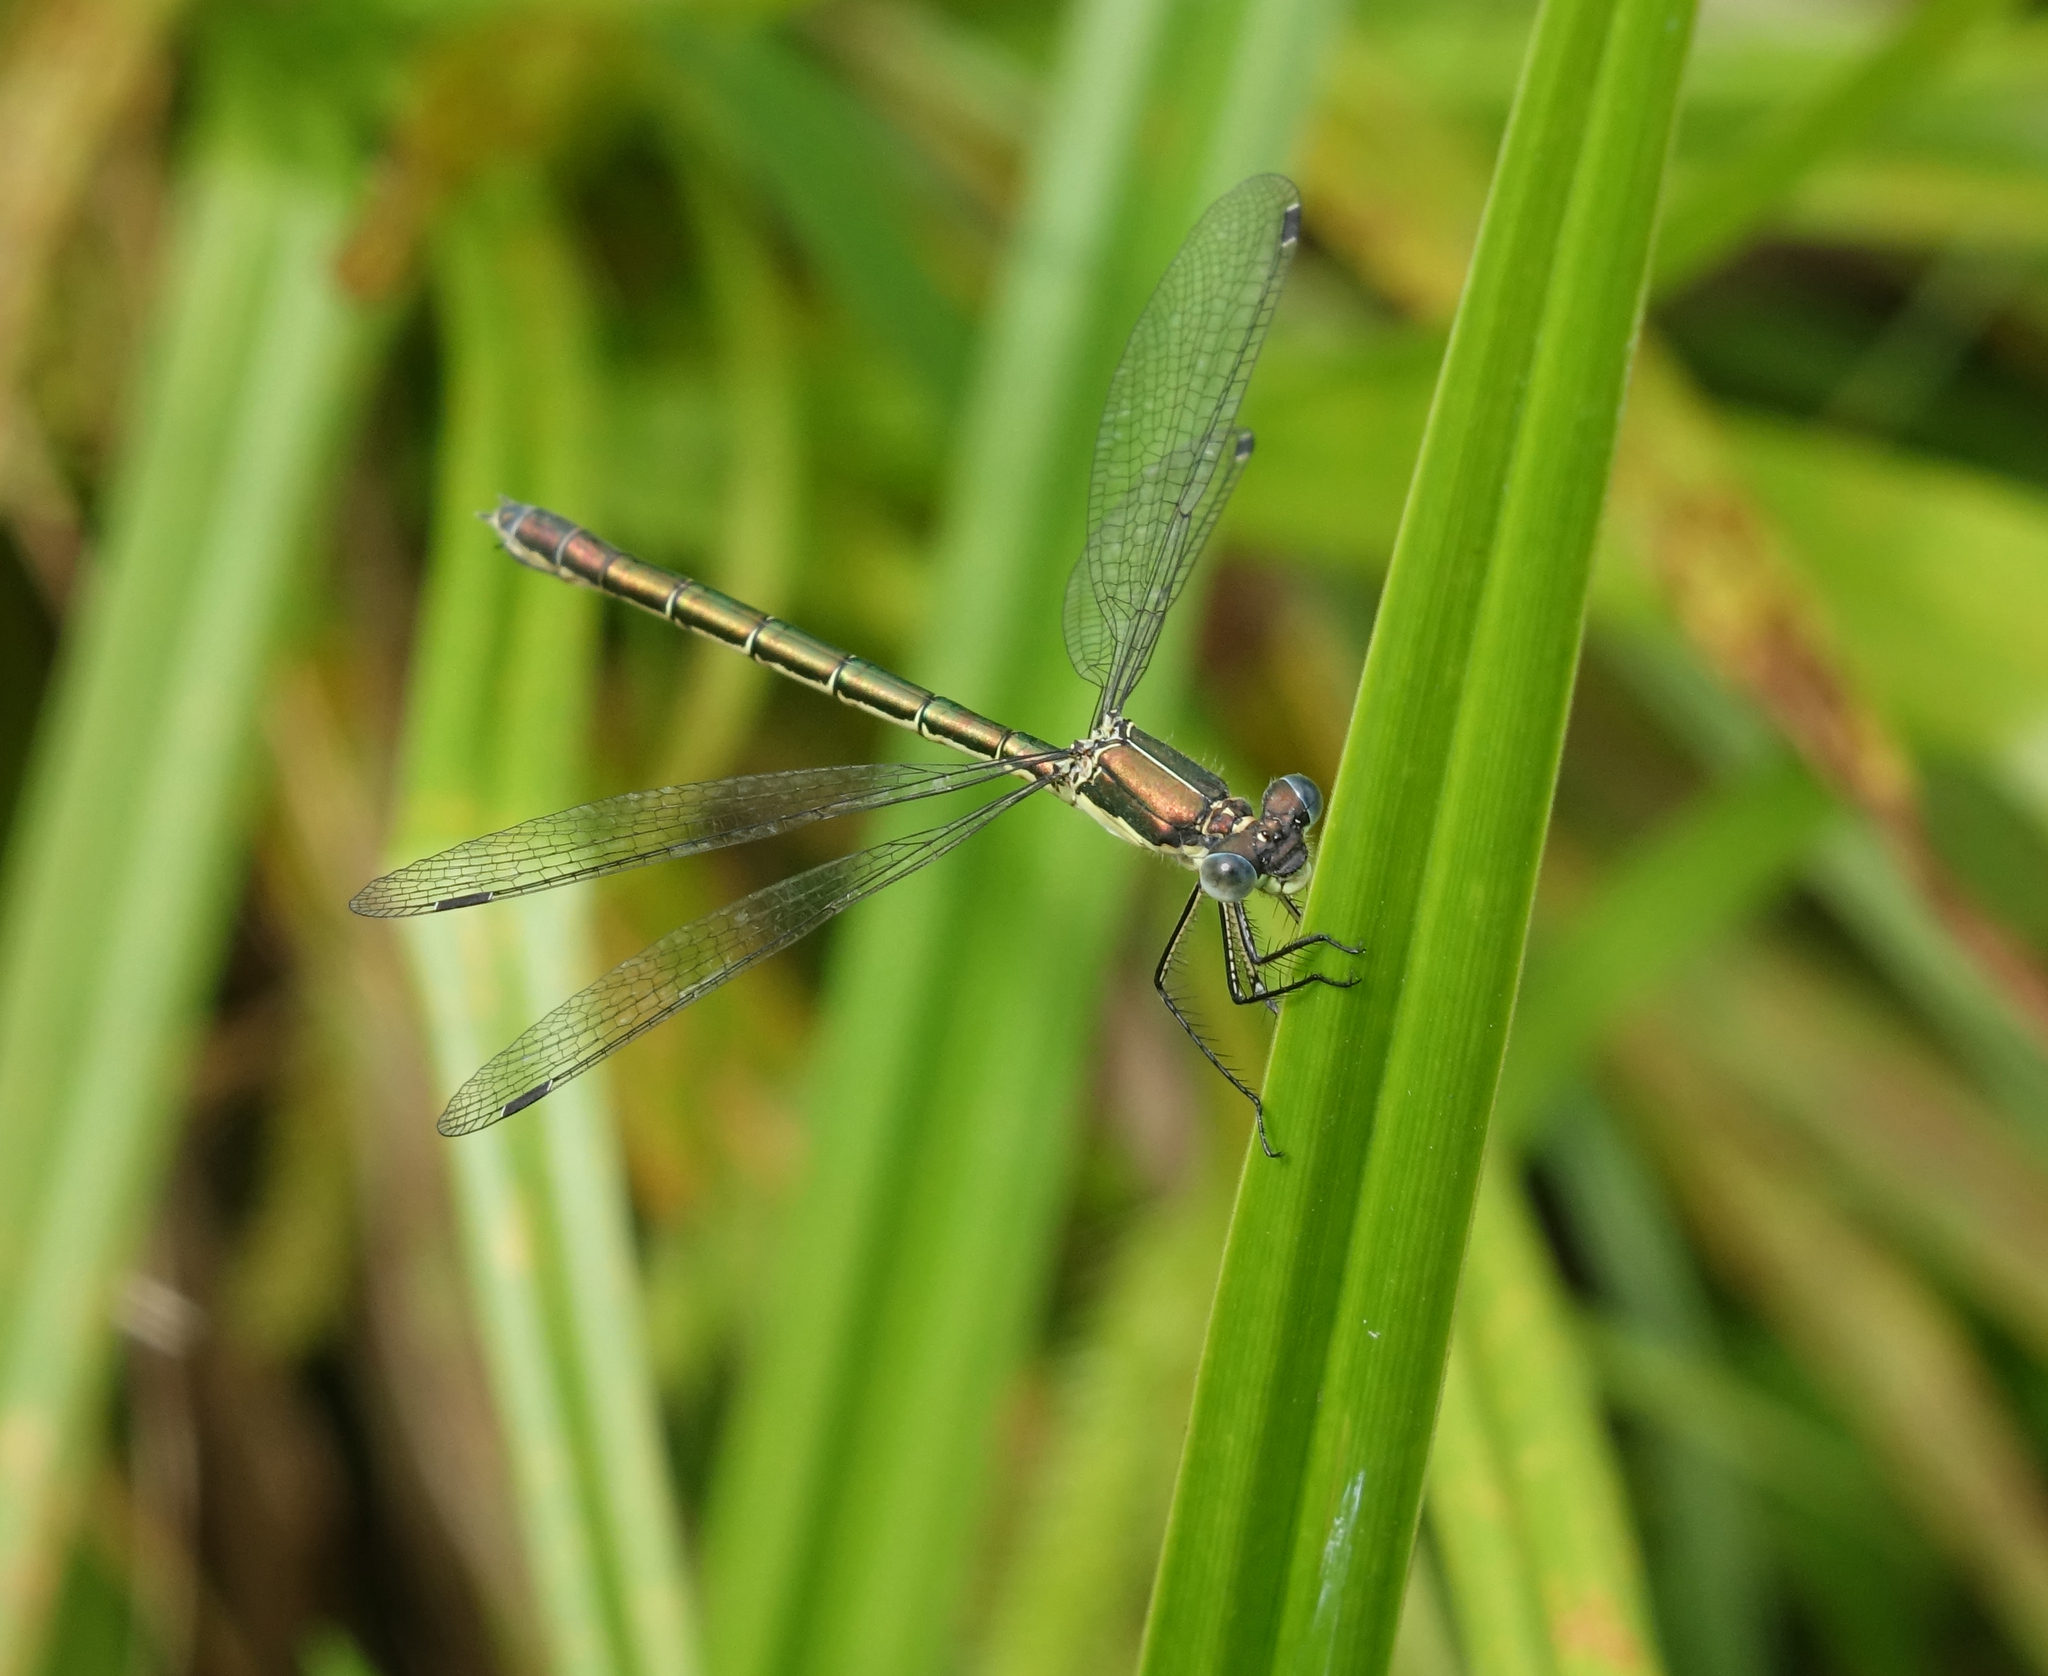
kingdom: Animalia
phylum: Arthropoda
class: Insecta
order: Odonata
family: Lestidae
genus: Lestes
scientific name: Lestes dryas
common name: Scarce emerald damselfly
